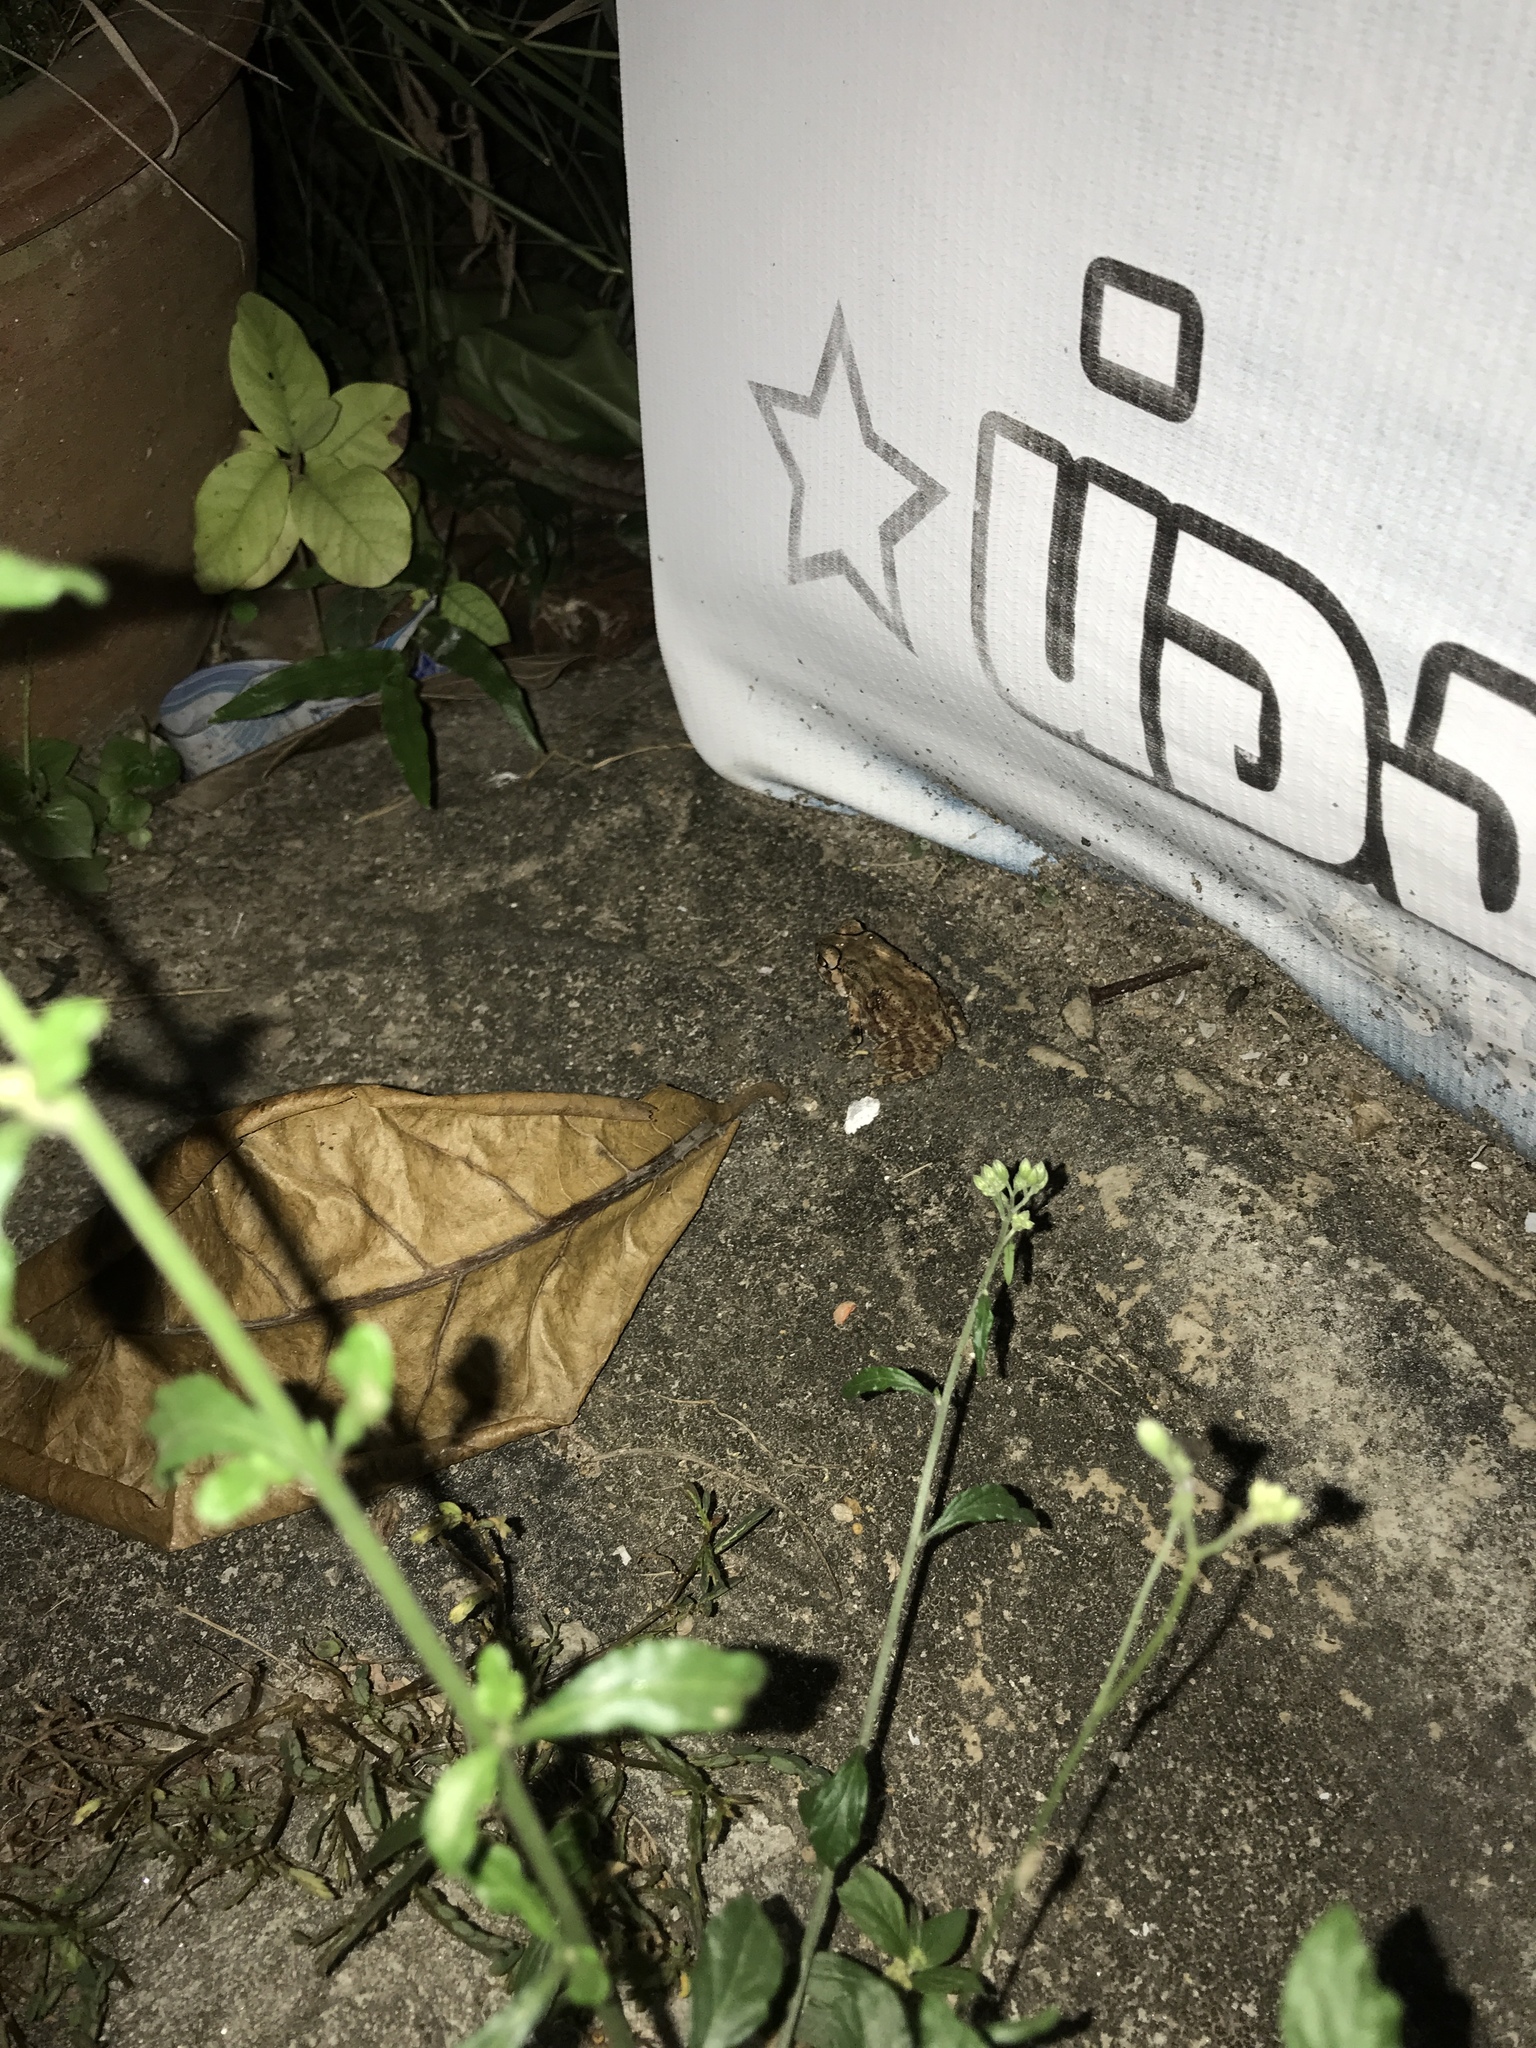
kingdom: Animalia
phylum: Chordata
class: Amphibia
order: Anura
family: Bufonidae
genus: Duttaphrynus
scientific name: Duttaphrynus melanostictus
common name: Common sunda toad
